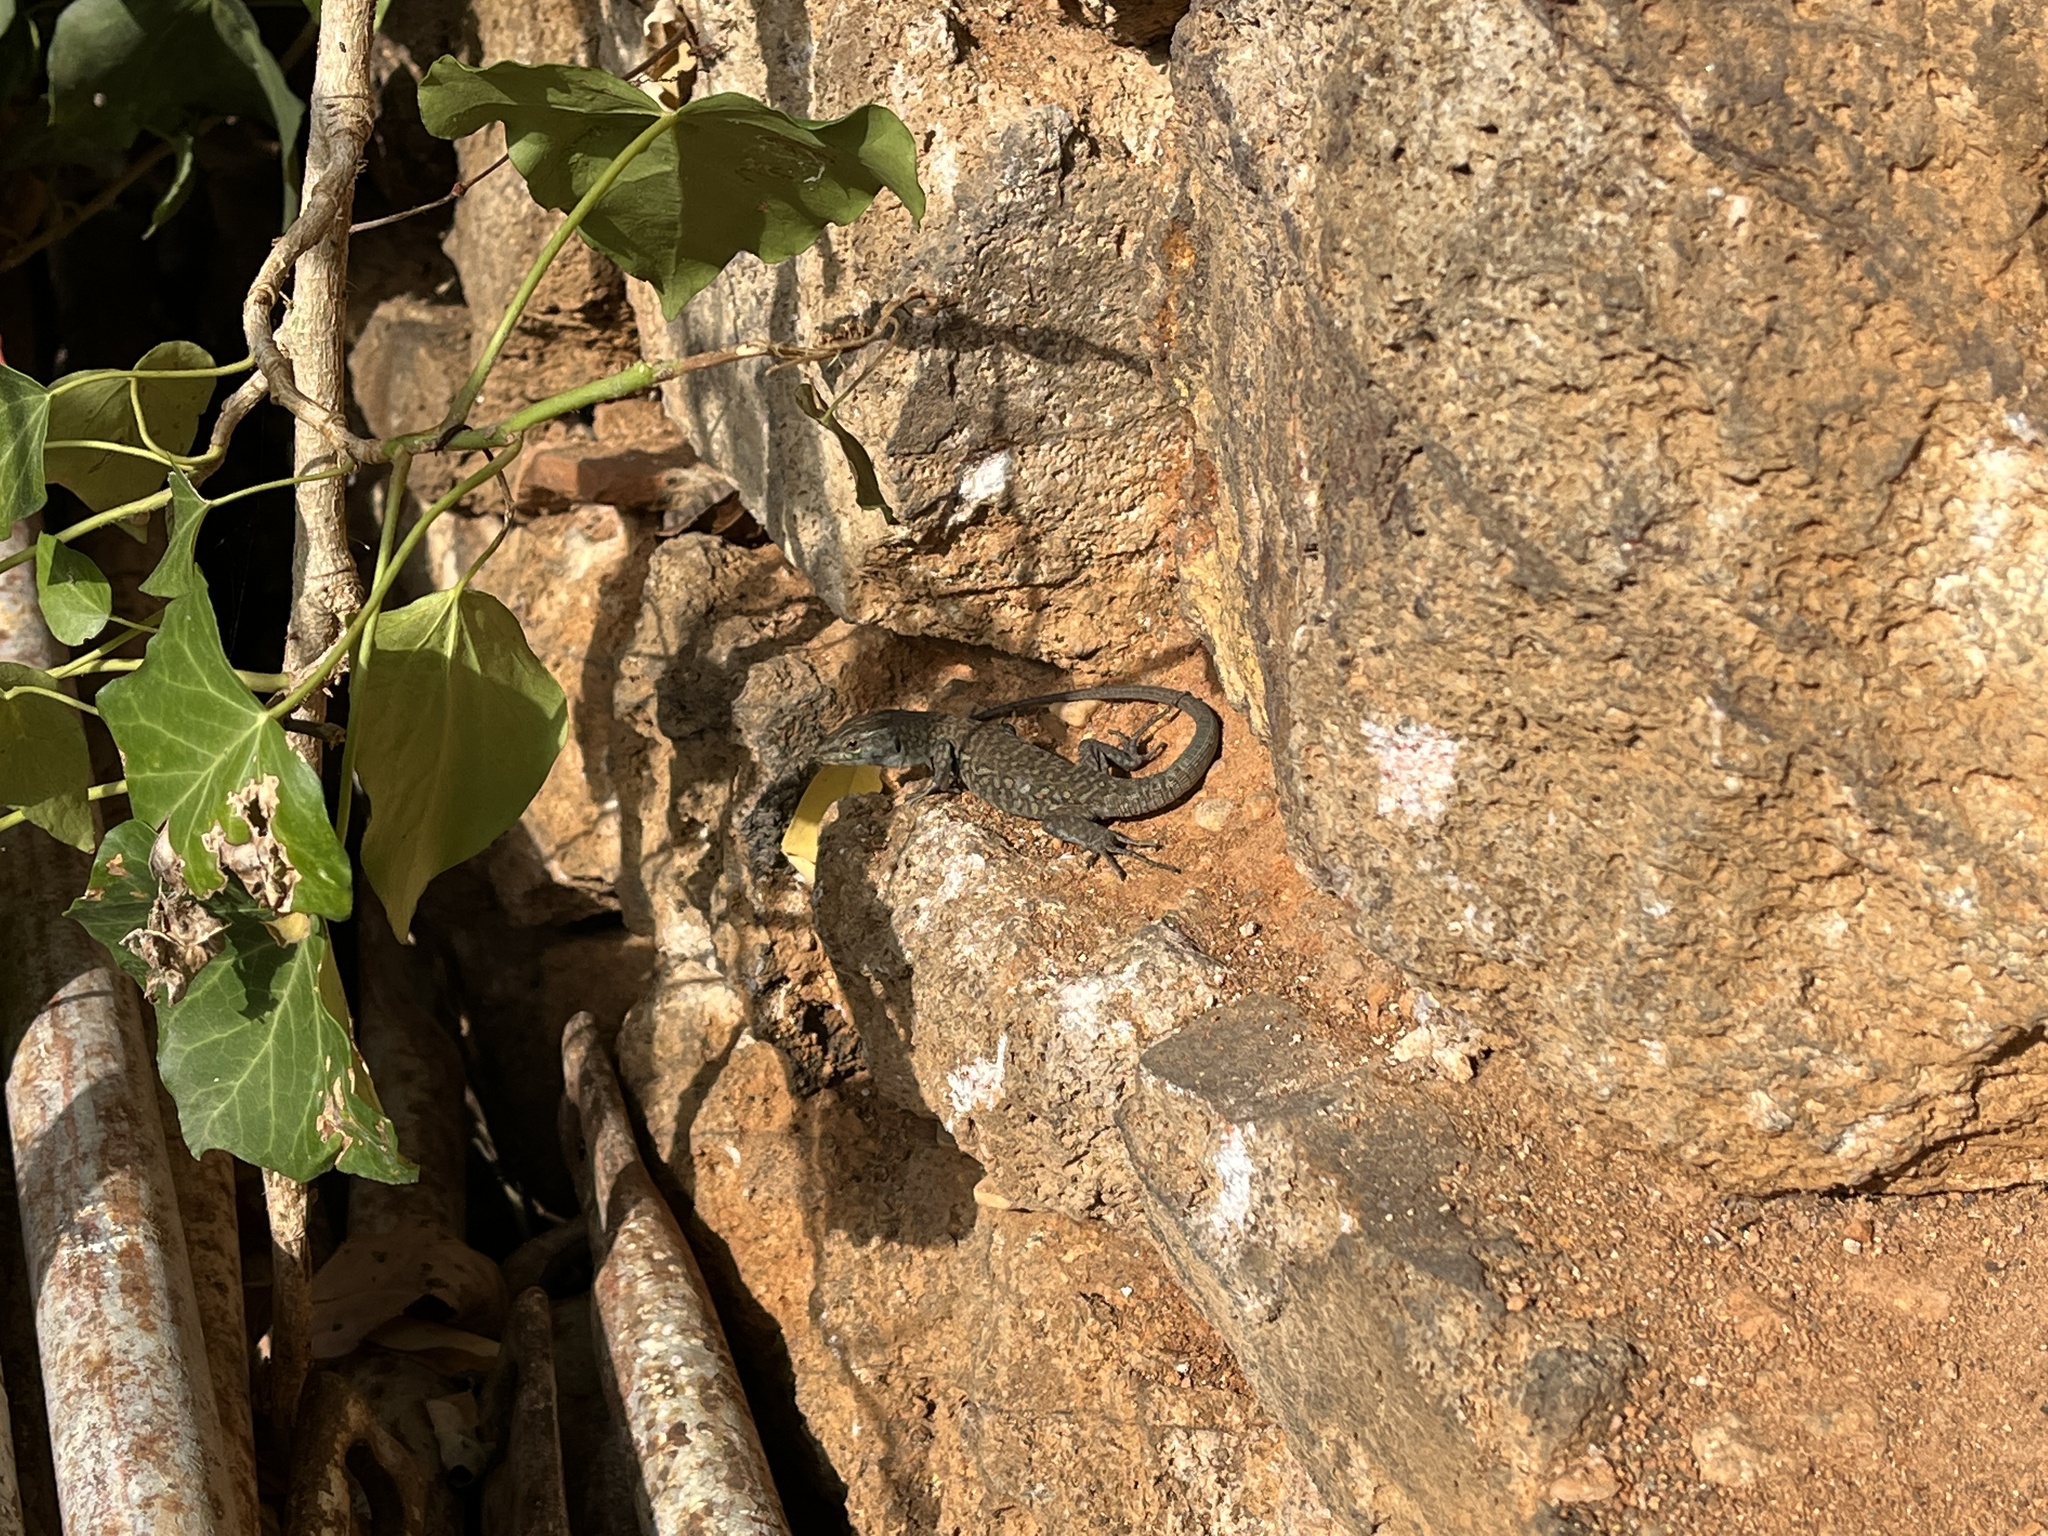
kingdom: Animalia
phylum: Chordata
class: Squamata
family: Lacertidae
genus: Podarcis
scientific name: Podarcis siculus
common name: Italian wall lizard
